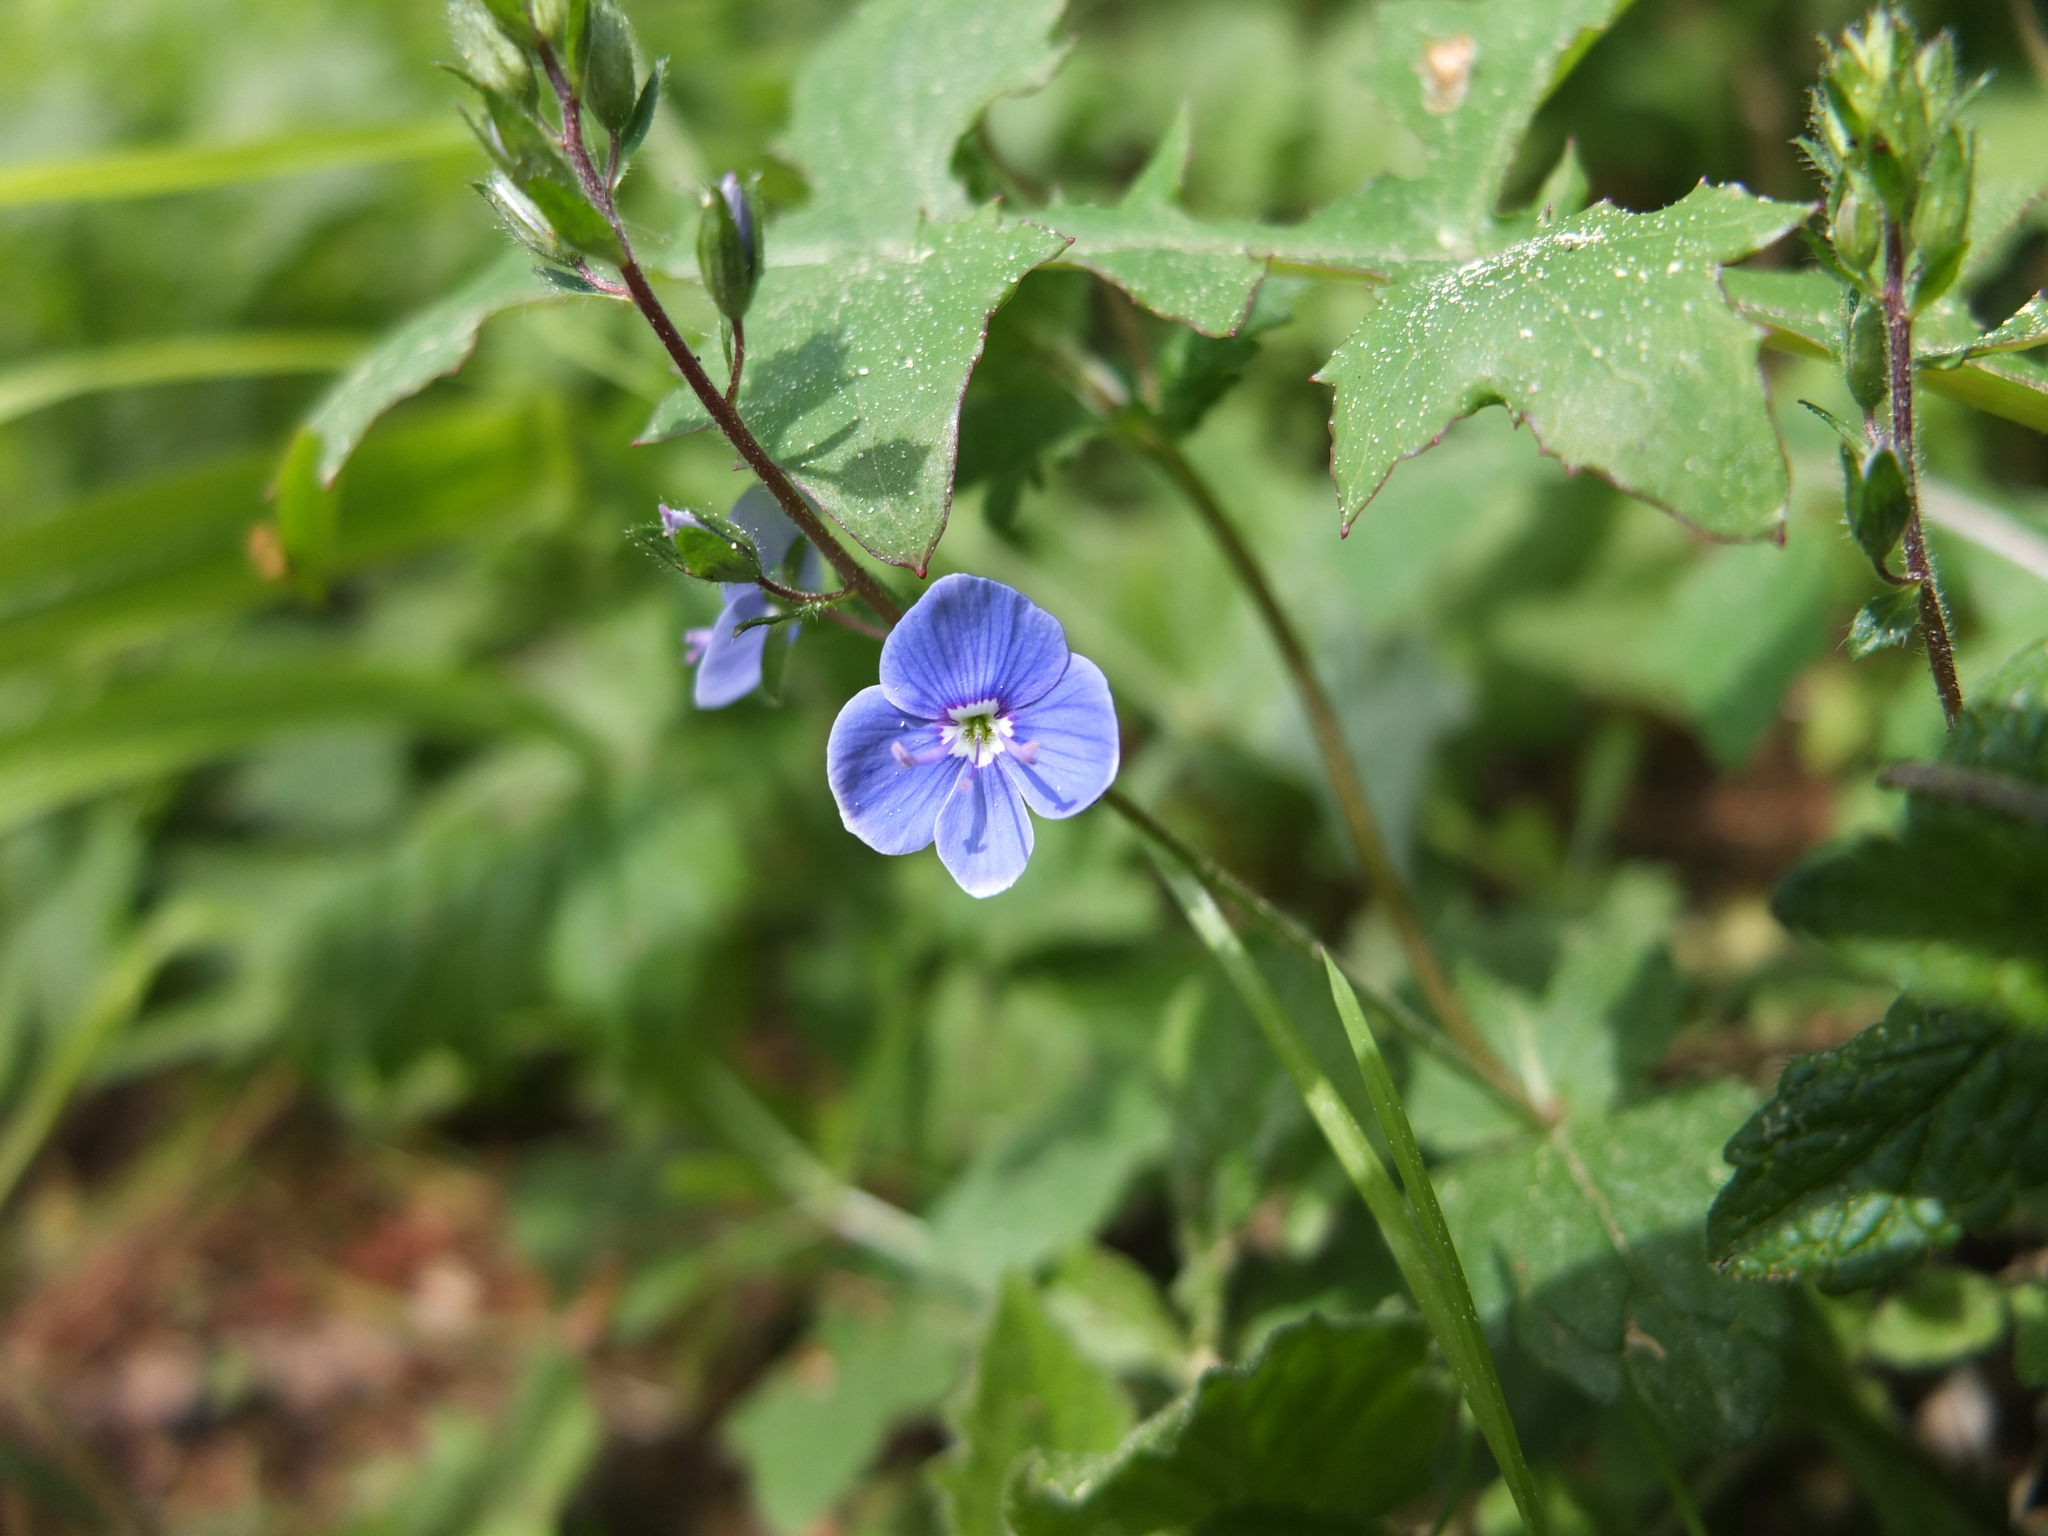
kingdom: Plantae
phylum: Tracheophyta
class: Magnoliopsida
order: Lamiales
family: Plantaginaceae
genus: Veronica
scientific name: Veronica chamaedrys
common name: Germander speedwell
